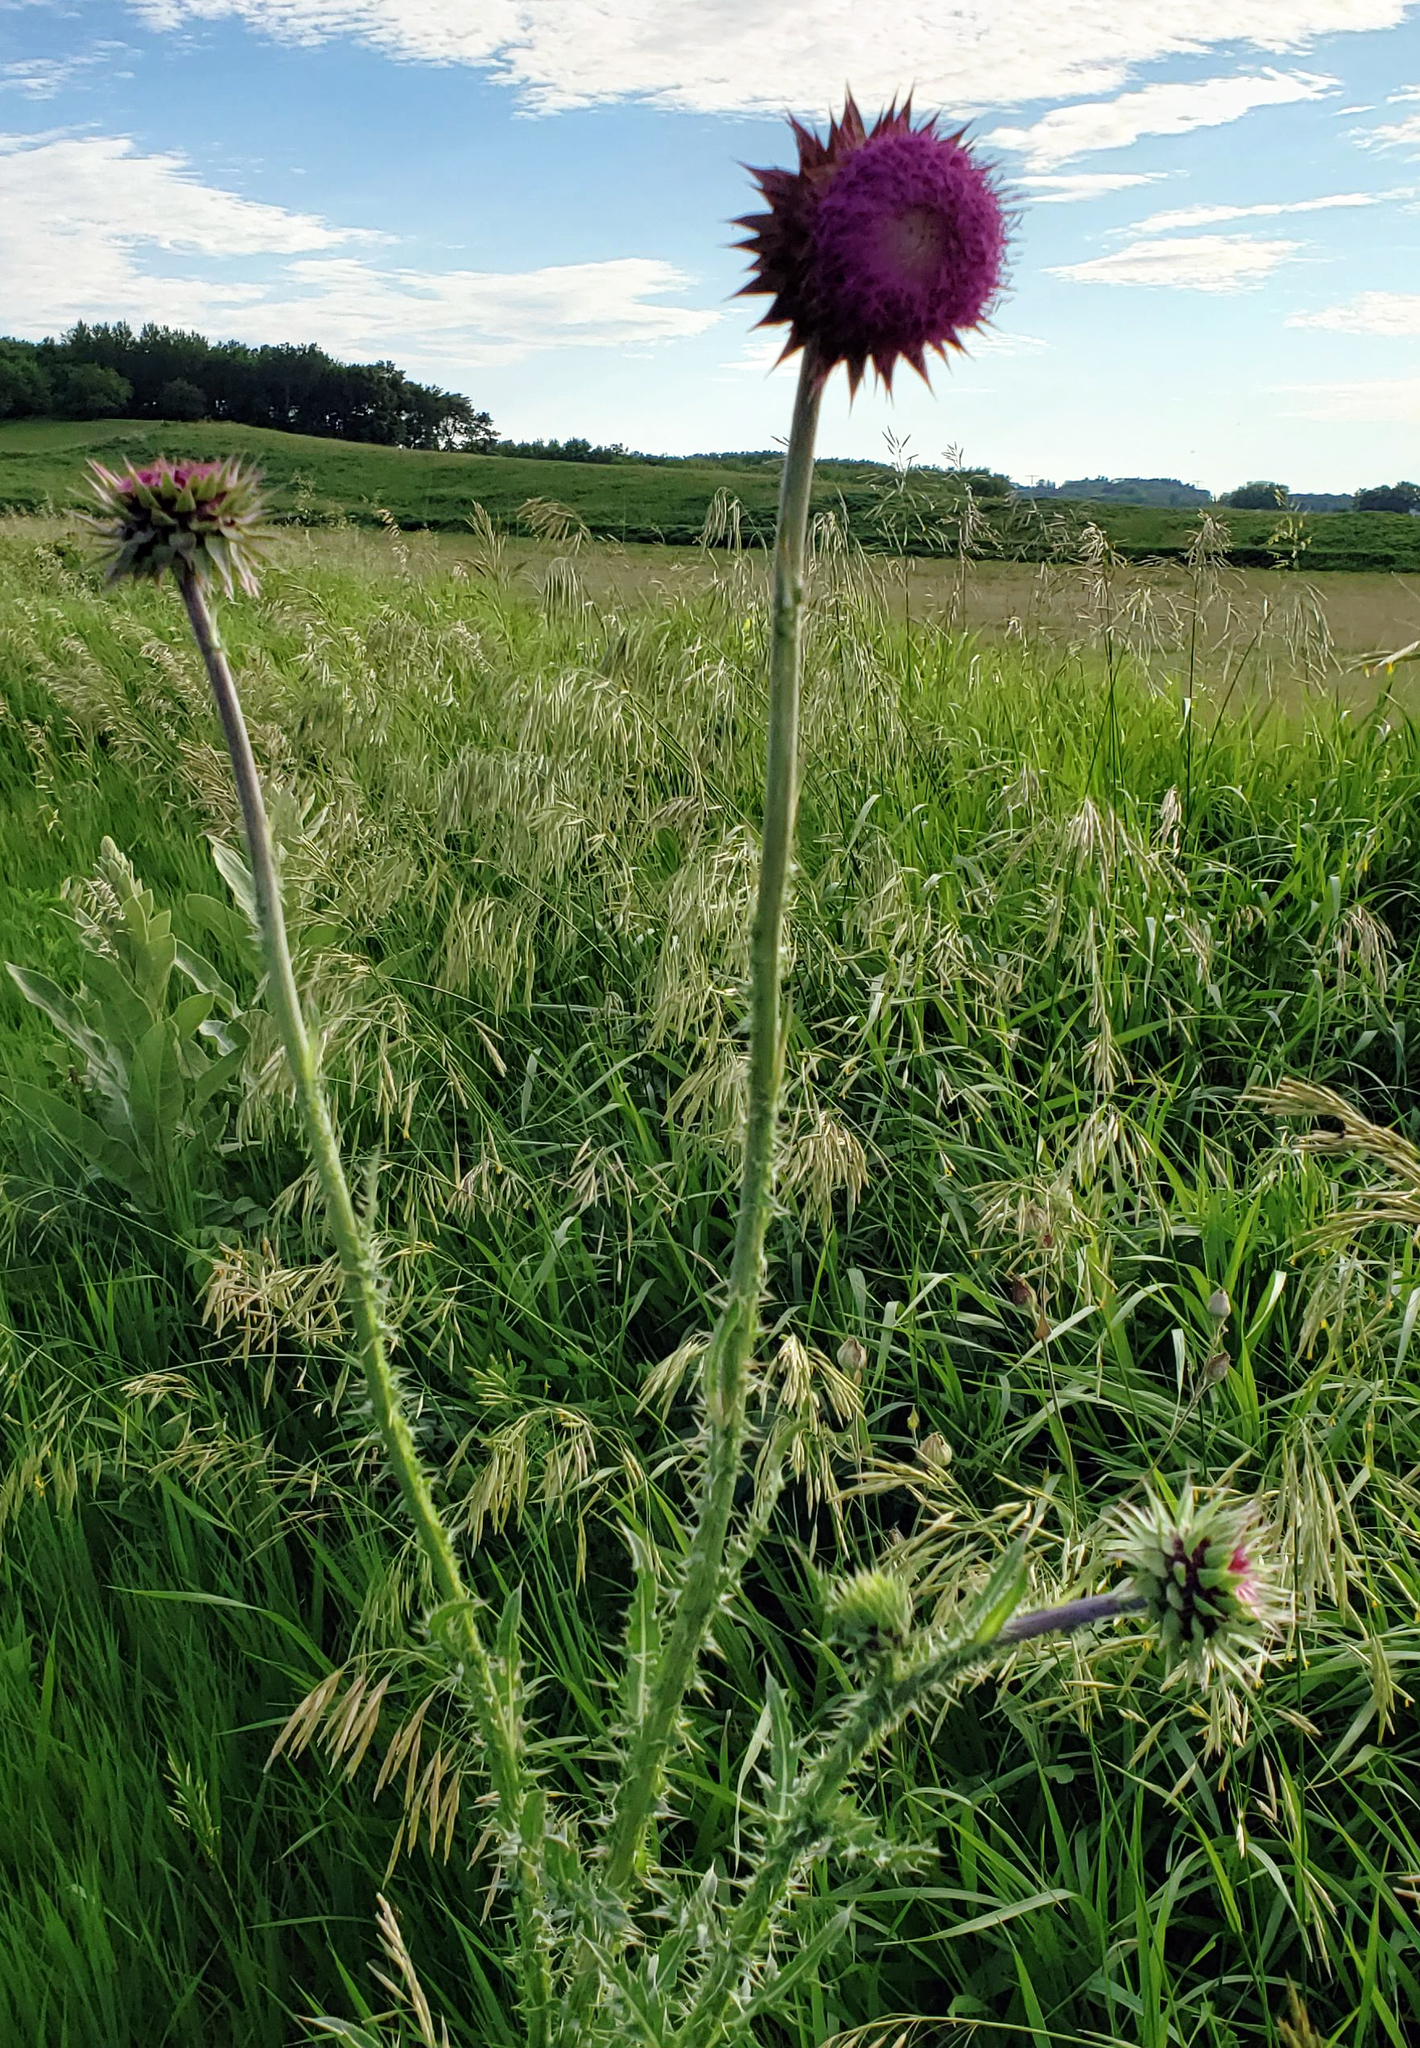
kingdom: Plantae
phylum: Tracheophyta
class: Magnoliopsida
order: Asterales
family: Asteraceae
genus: Carduus
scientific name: Carduus nutans
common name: Musk thistle
